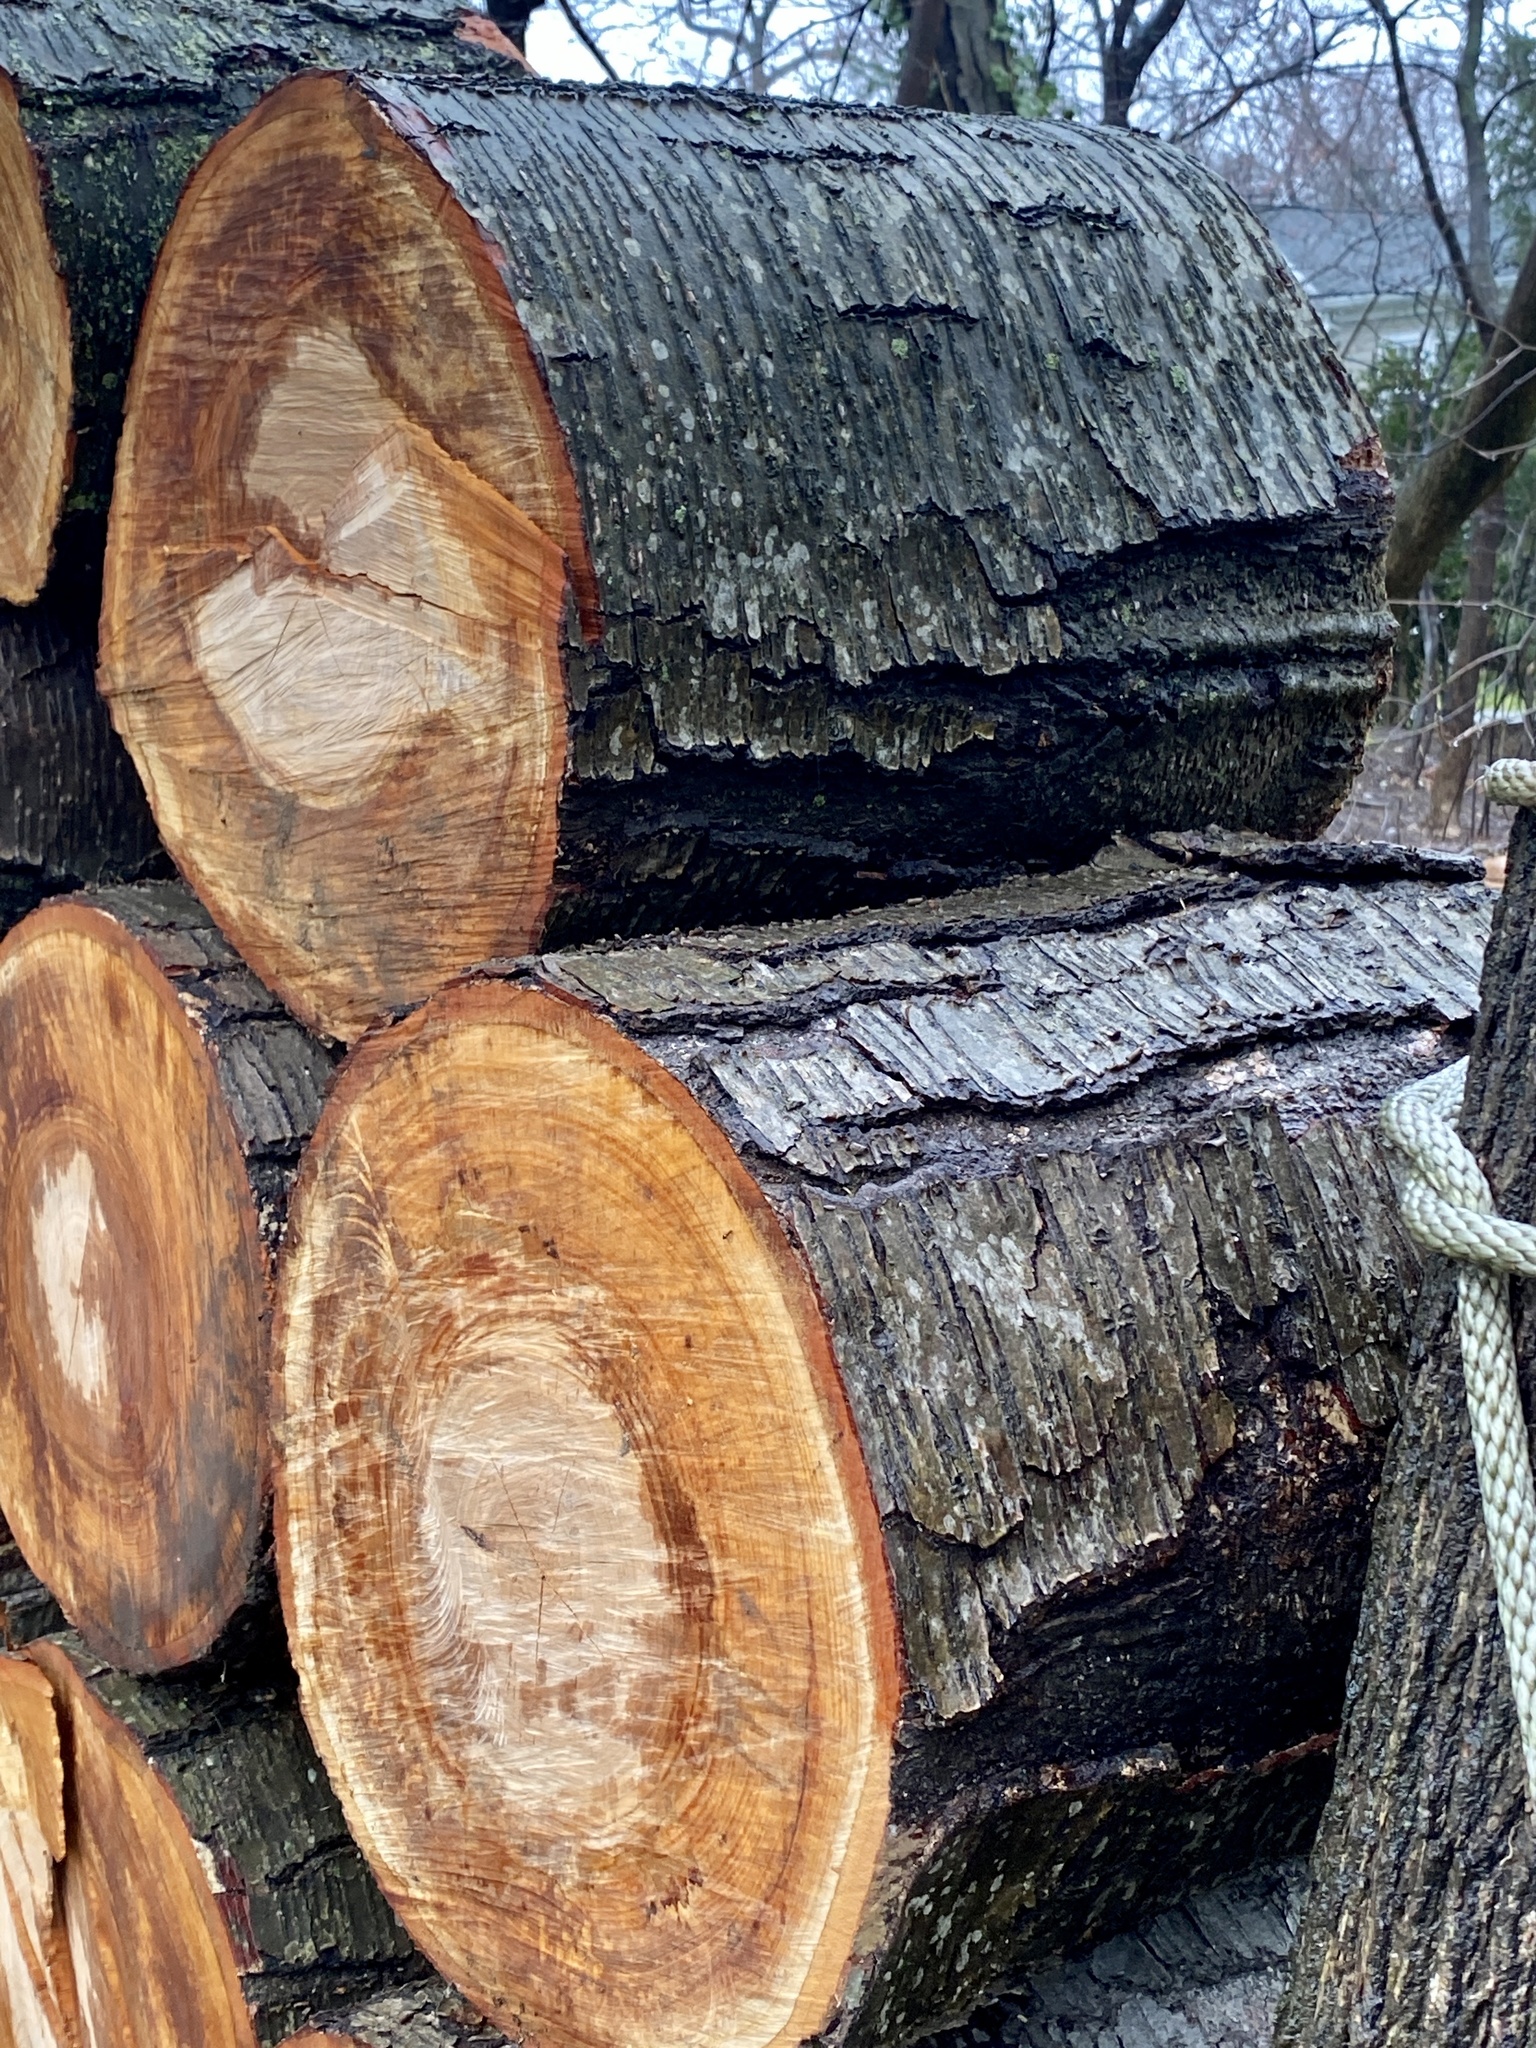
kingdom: Plantae
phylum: Tracheophyta
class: Magnoliopsida
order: Fagales
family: Betulaceae
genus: Betula
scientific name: Betula lenta
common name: Black birch
